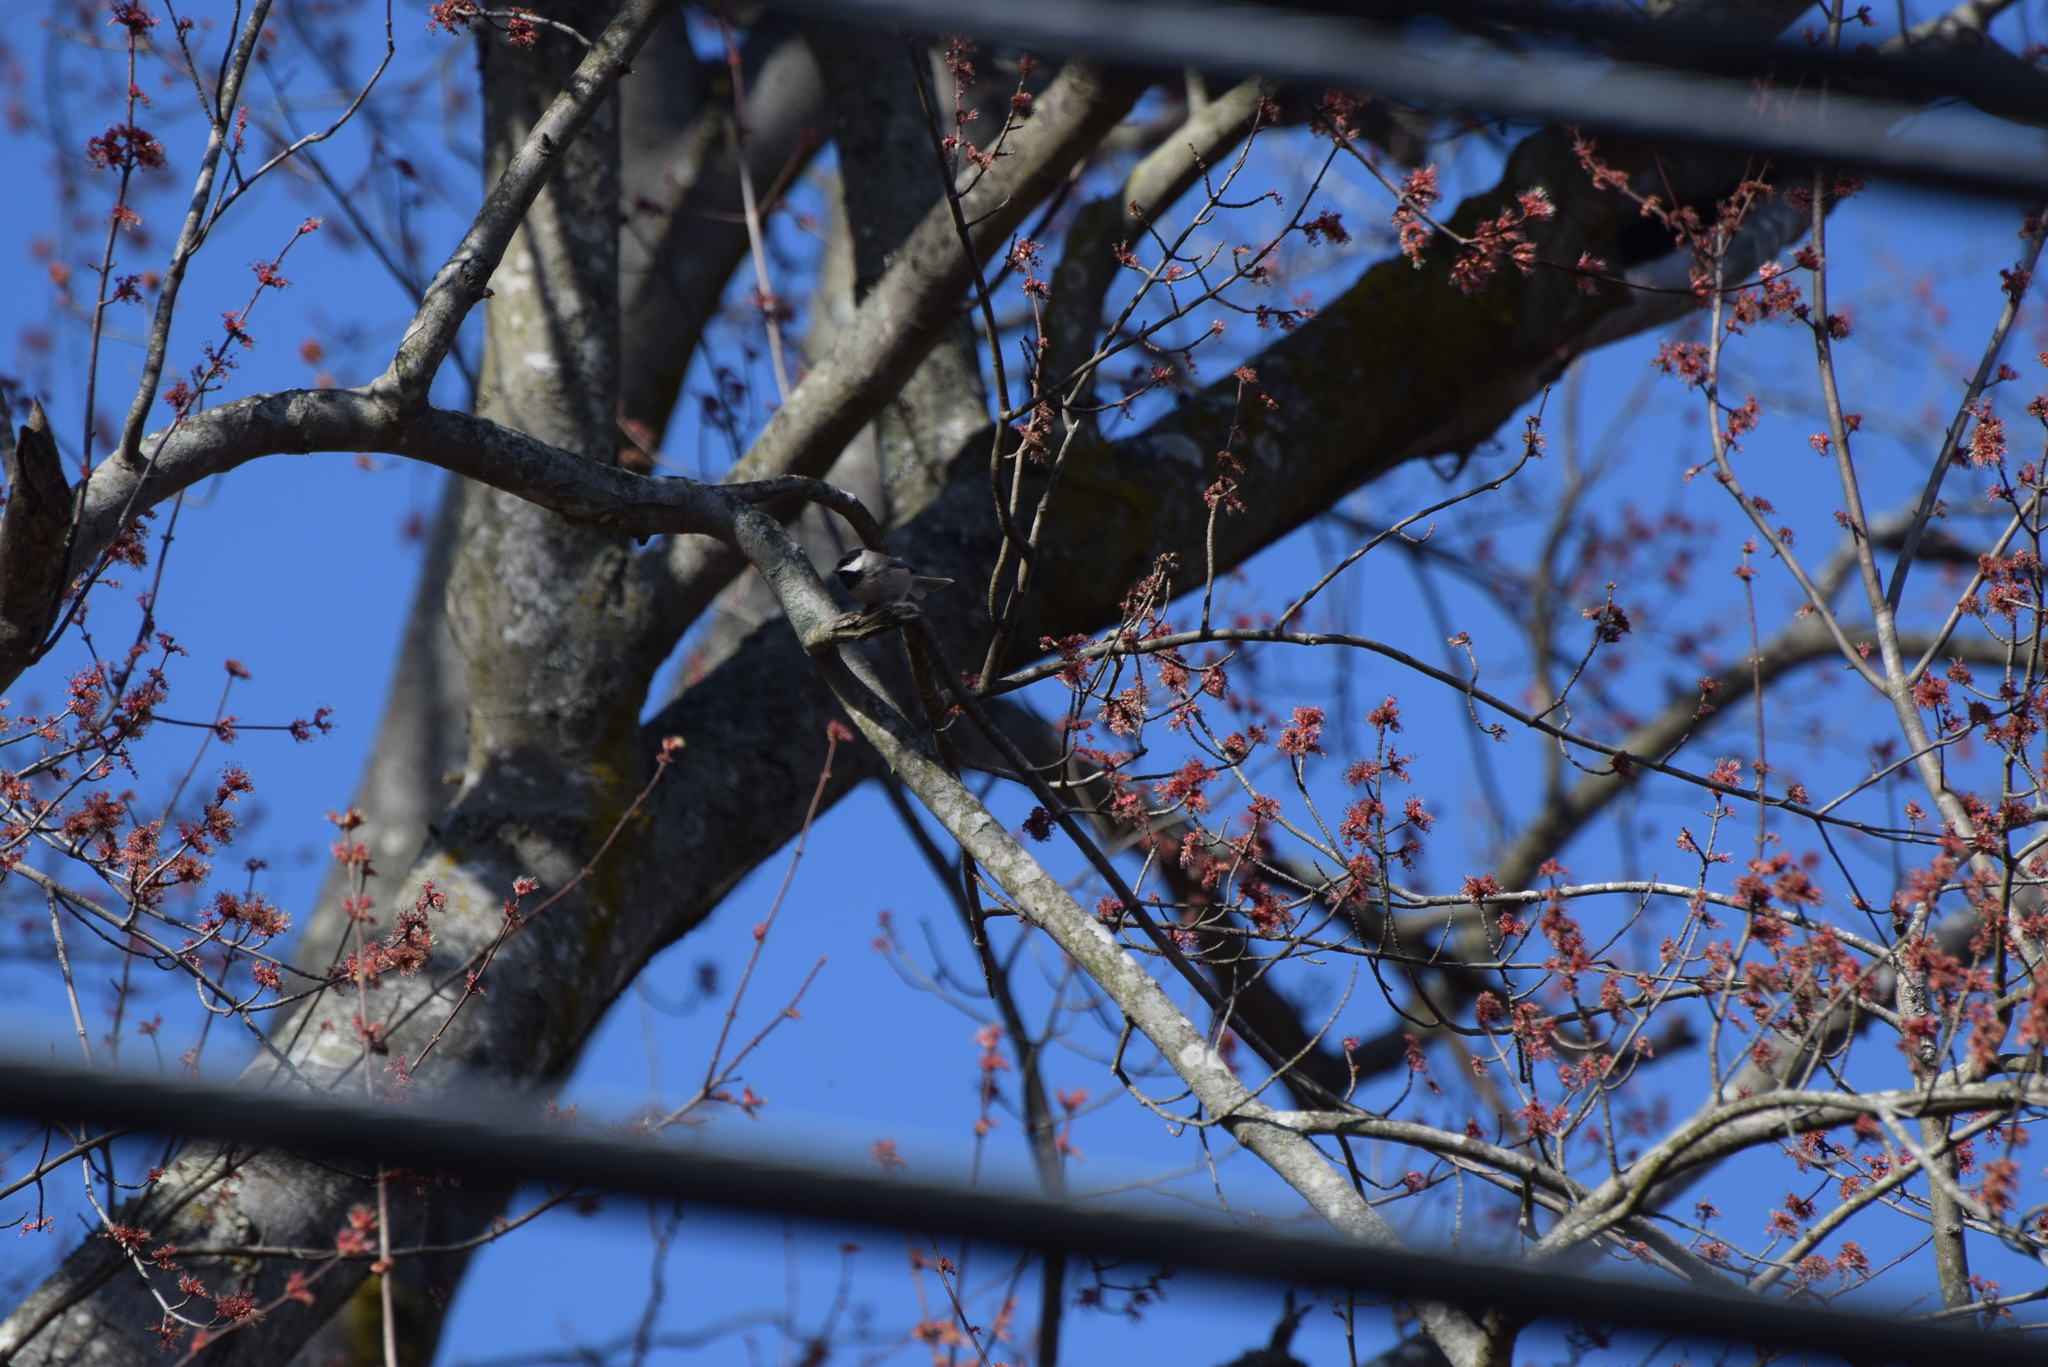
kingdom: Animalia
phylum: Chordata
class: Aves
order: Passeriformes
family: Paridae
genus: Poecile
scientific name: Poecile carolinensis
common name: Carolina chickadee
